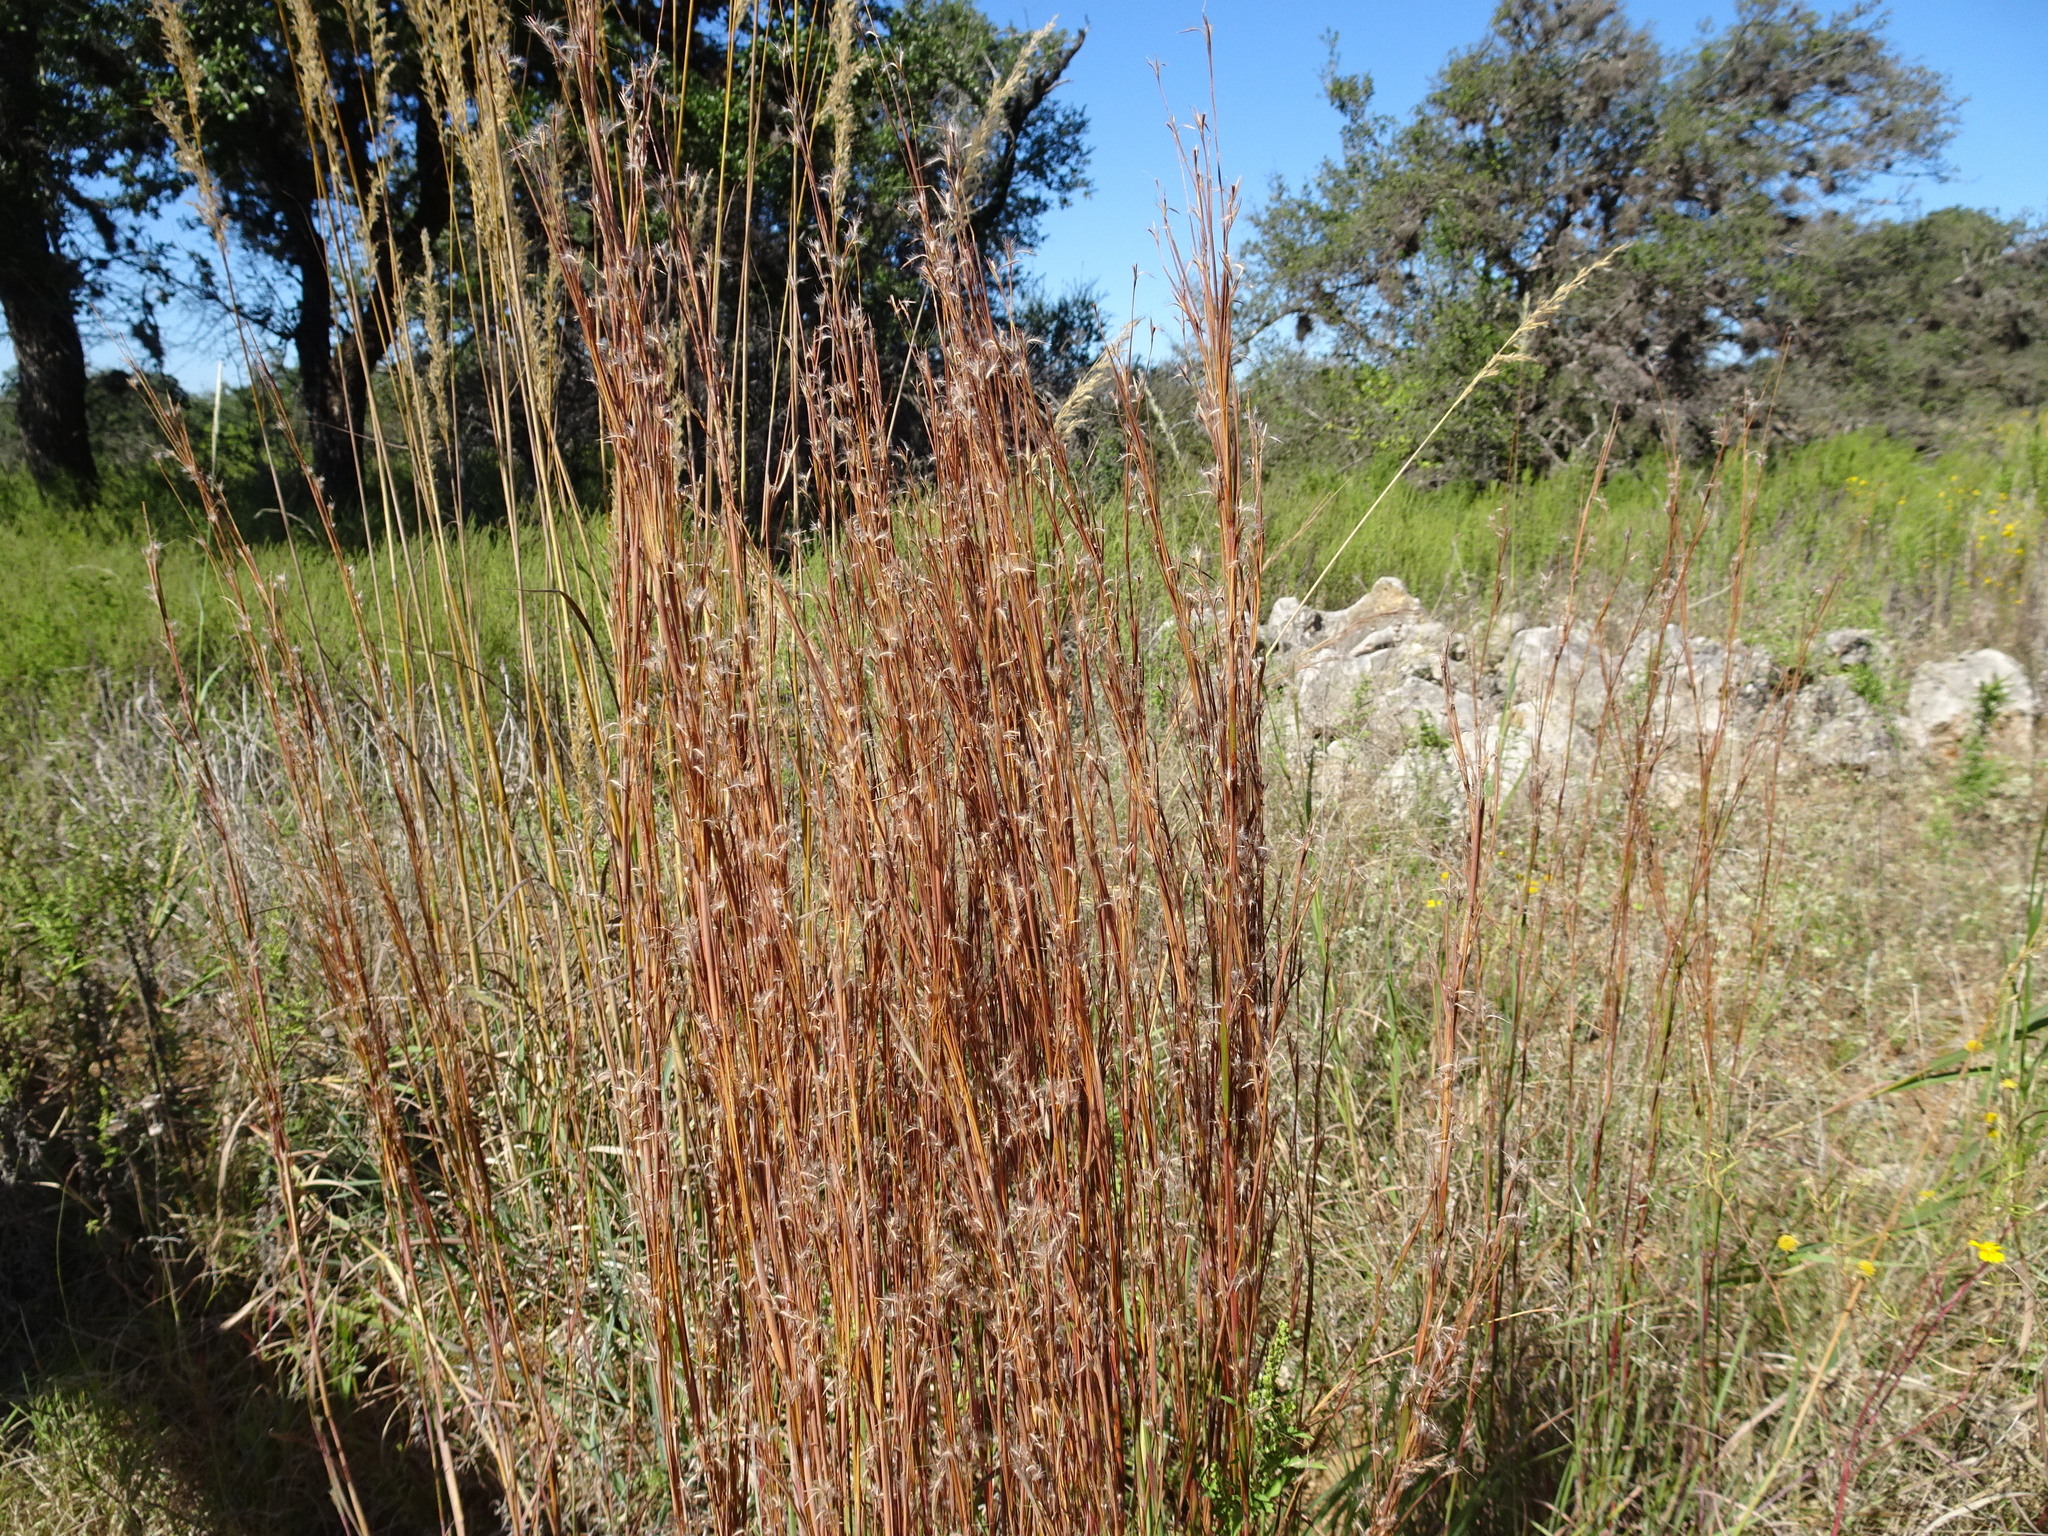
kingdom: Plantae
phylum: Tracheophyta
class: Liliopsida
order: Poales
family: Poaceae
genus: Schizachyrium
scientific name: Schizachyrium scoparium
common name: Little bluestem
